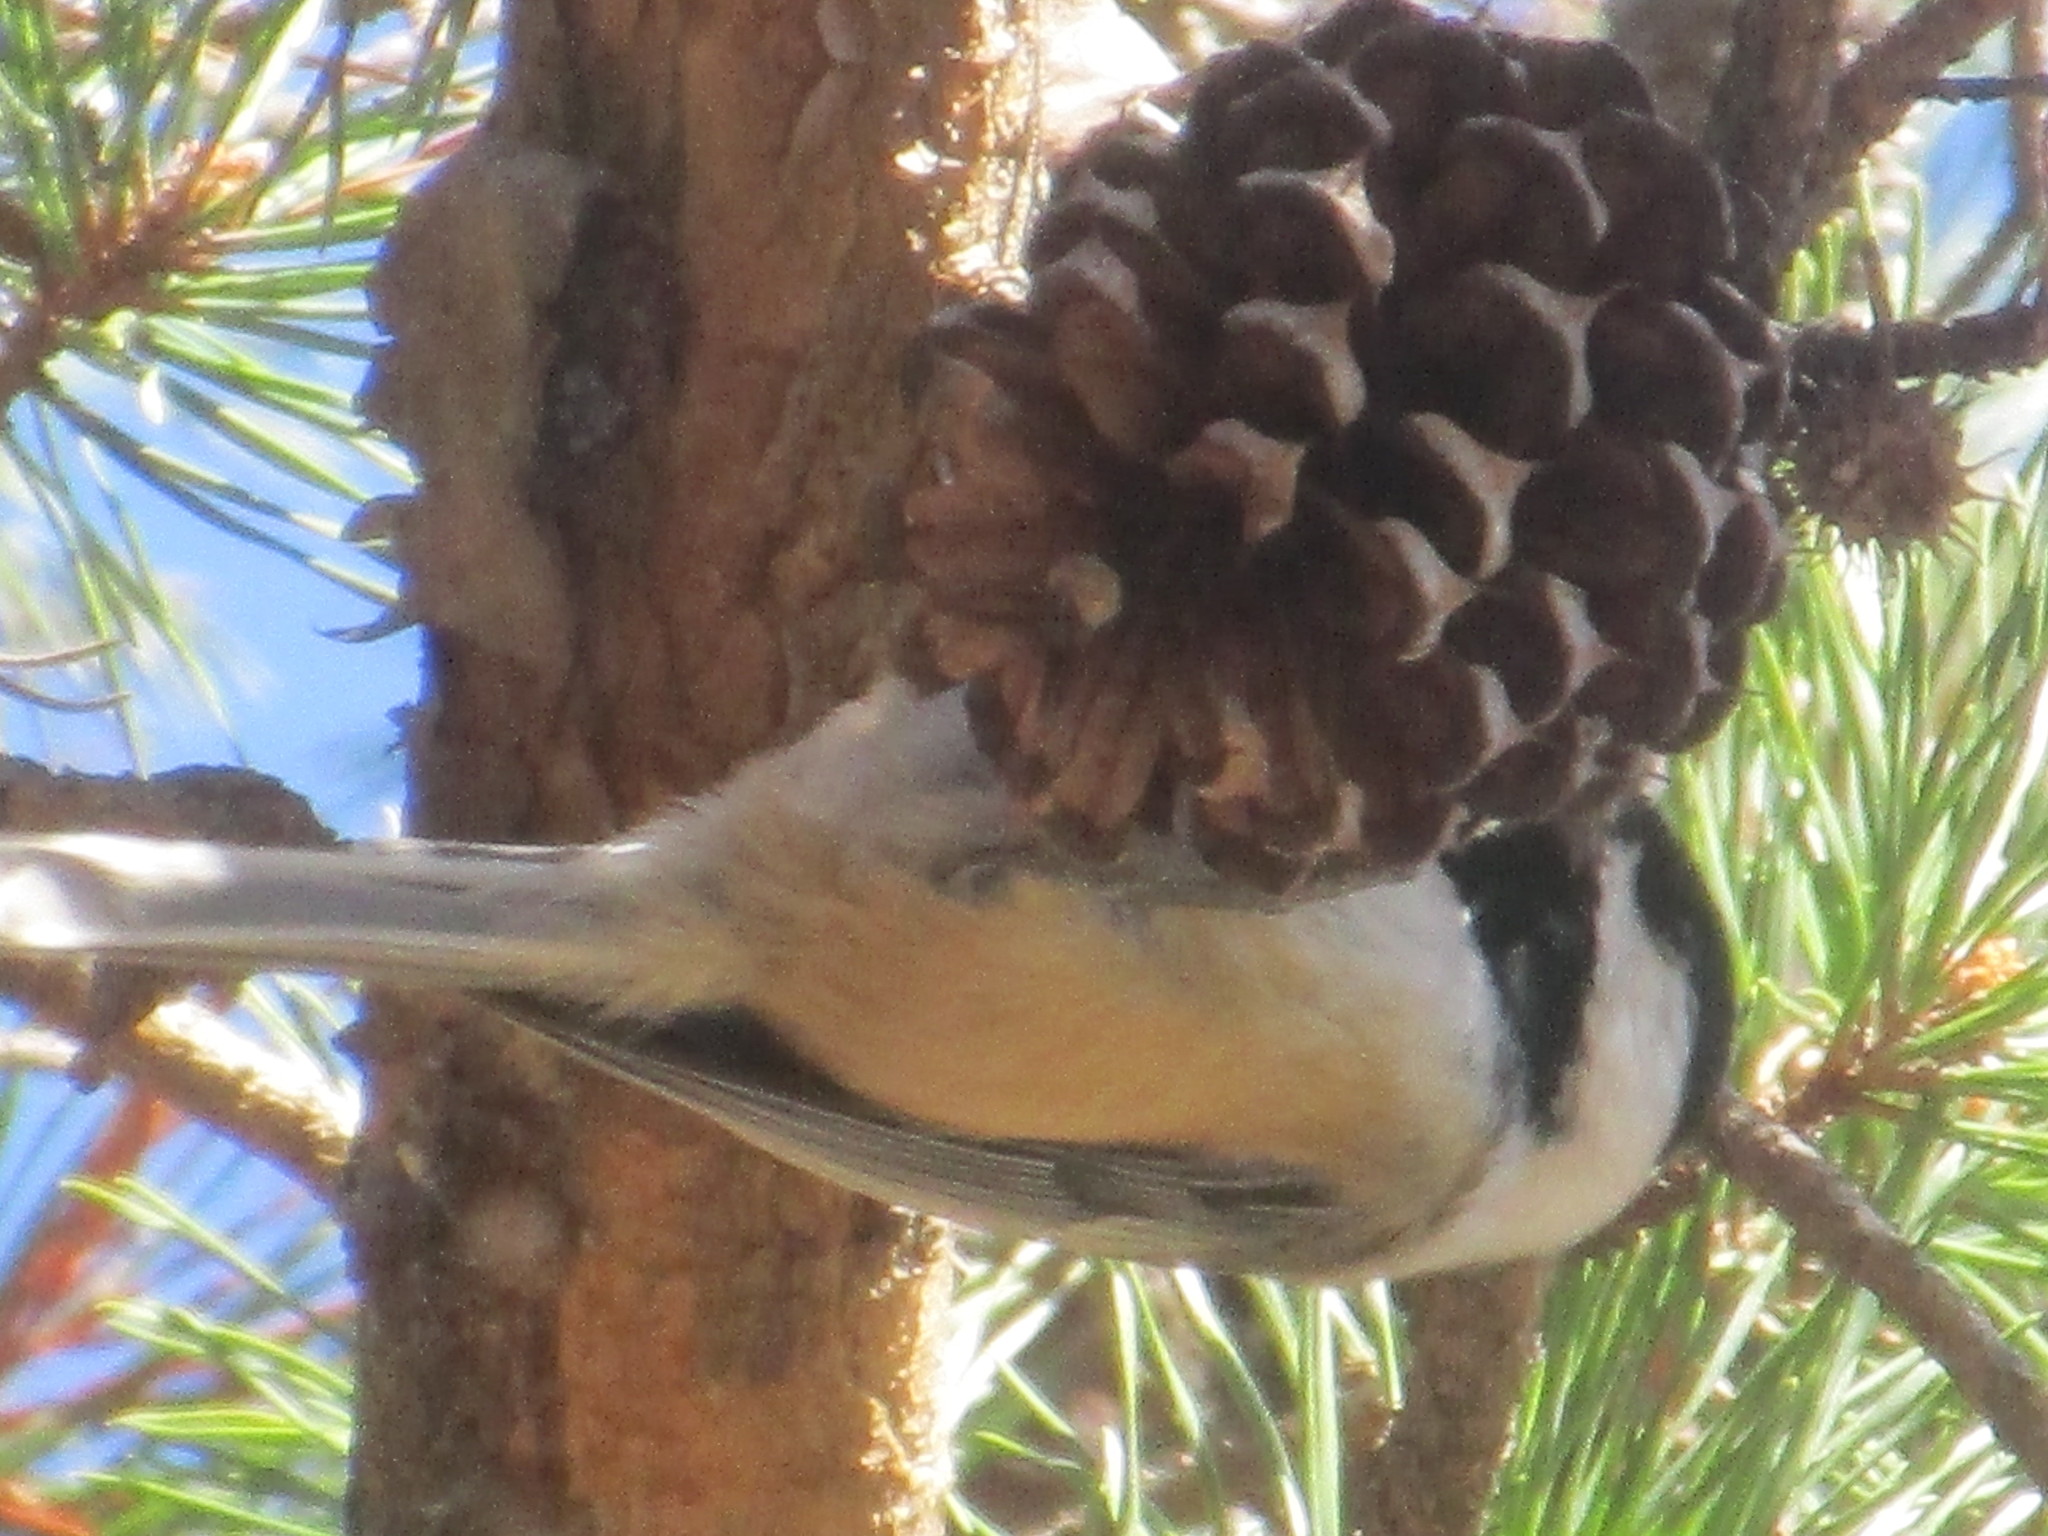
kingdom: Animalia
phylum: Chordata
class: Aves
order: Passeriformes
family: Paridae
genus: Poecile
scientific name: Poecile atricapillus
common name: Black-capped chickadee
